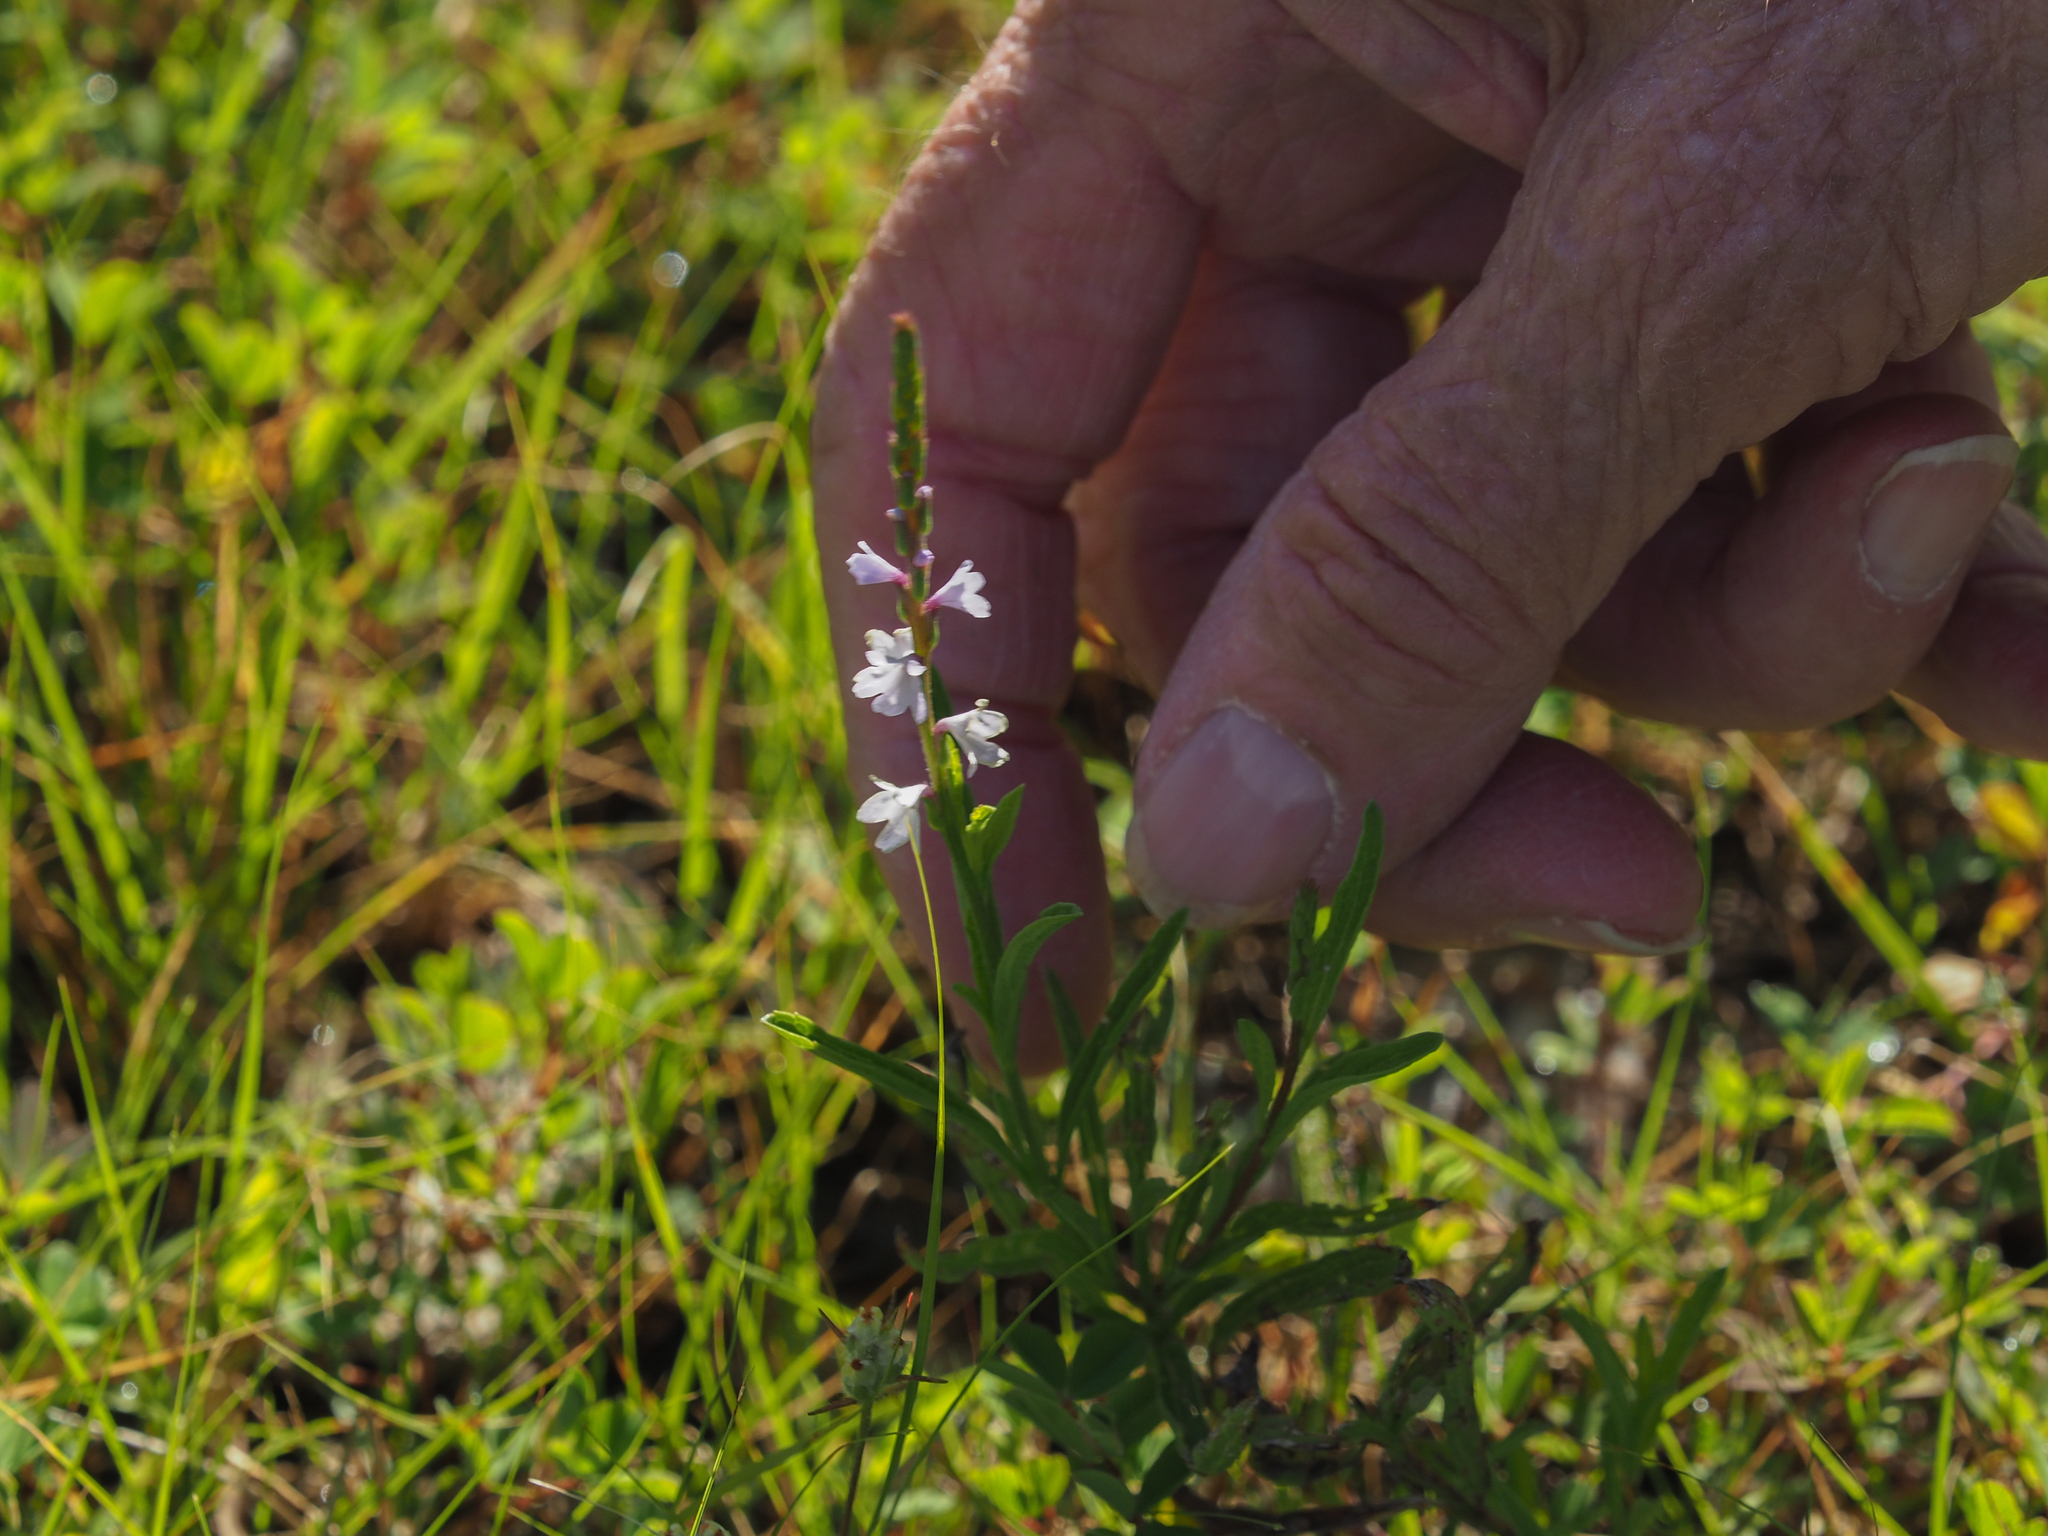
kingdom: Plantae
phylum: Tracheophyta
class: Magnoliopsida
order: Lamiales
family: Verbenaceae
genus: Verbena
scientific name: Verbena simplex
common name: Narrow-leaf vervain
